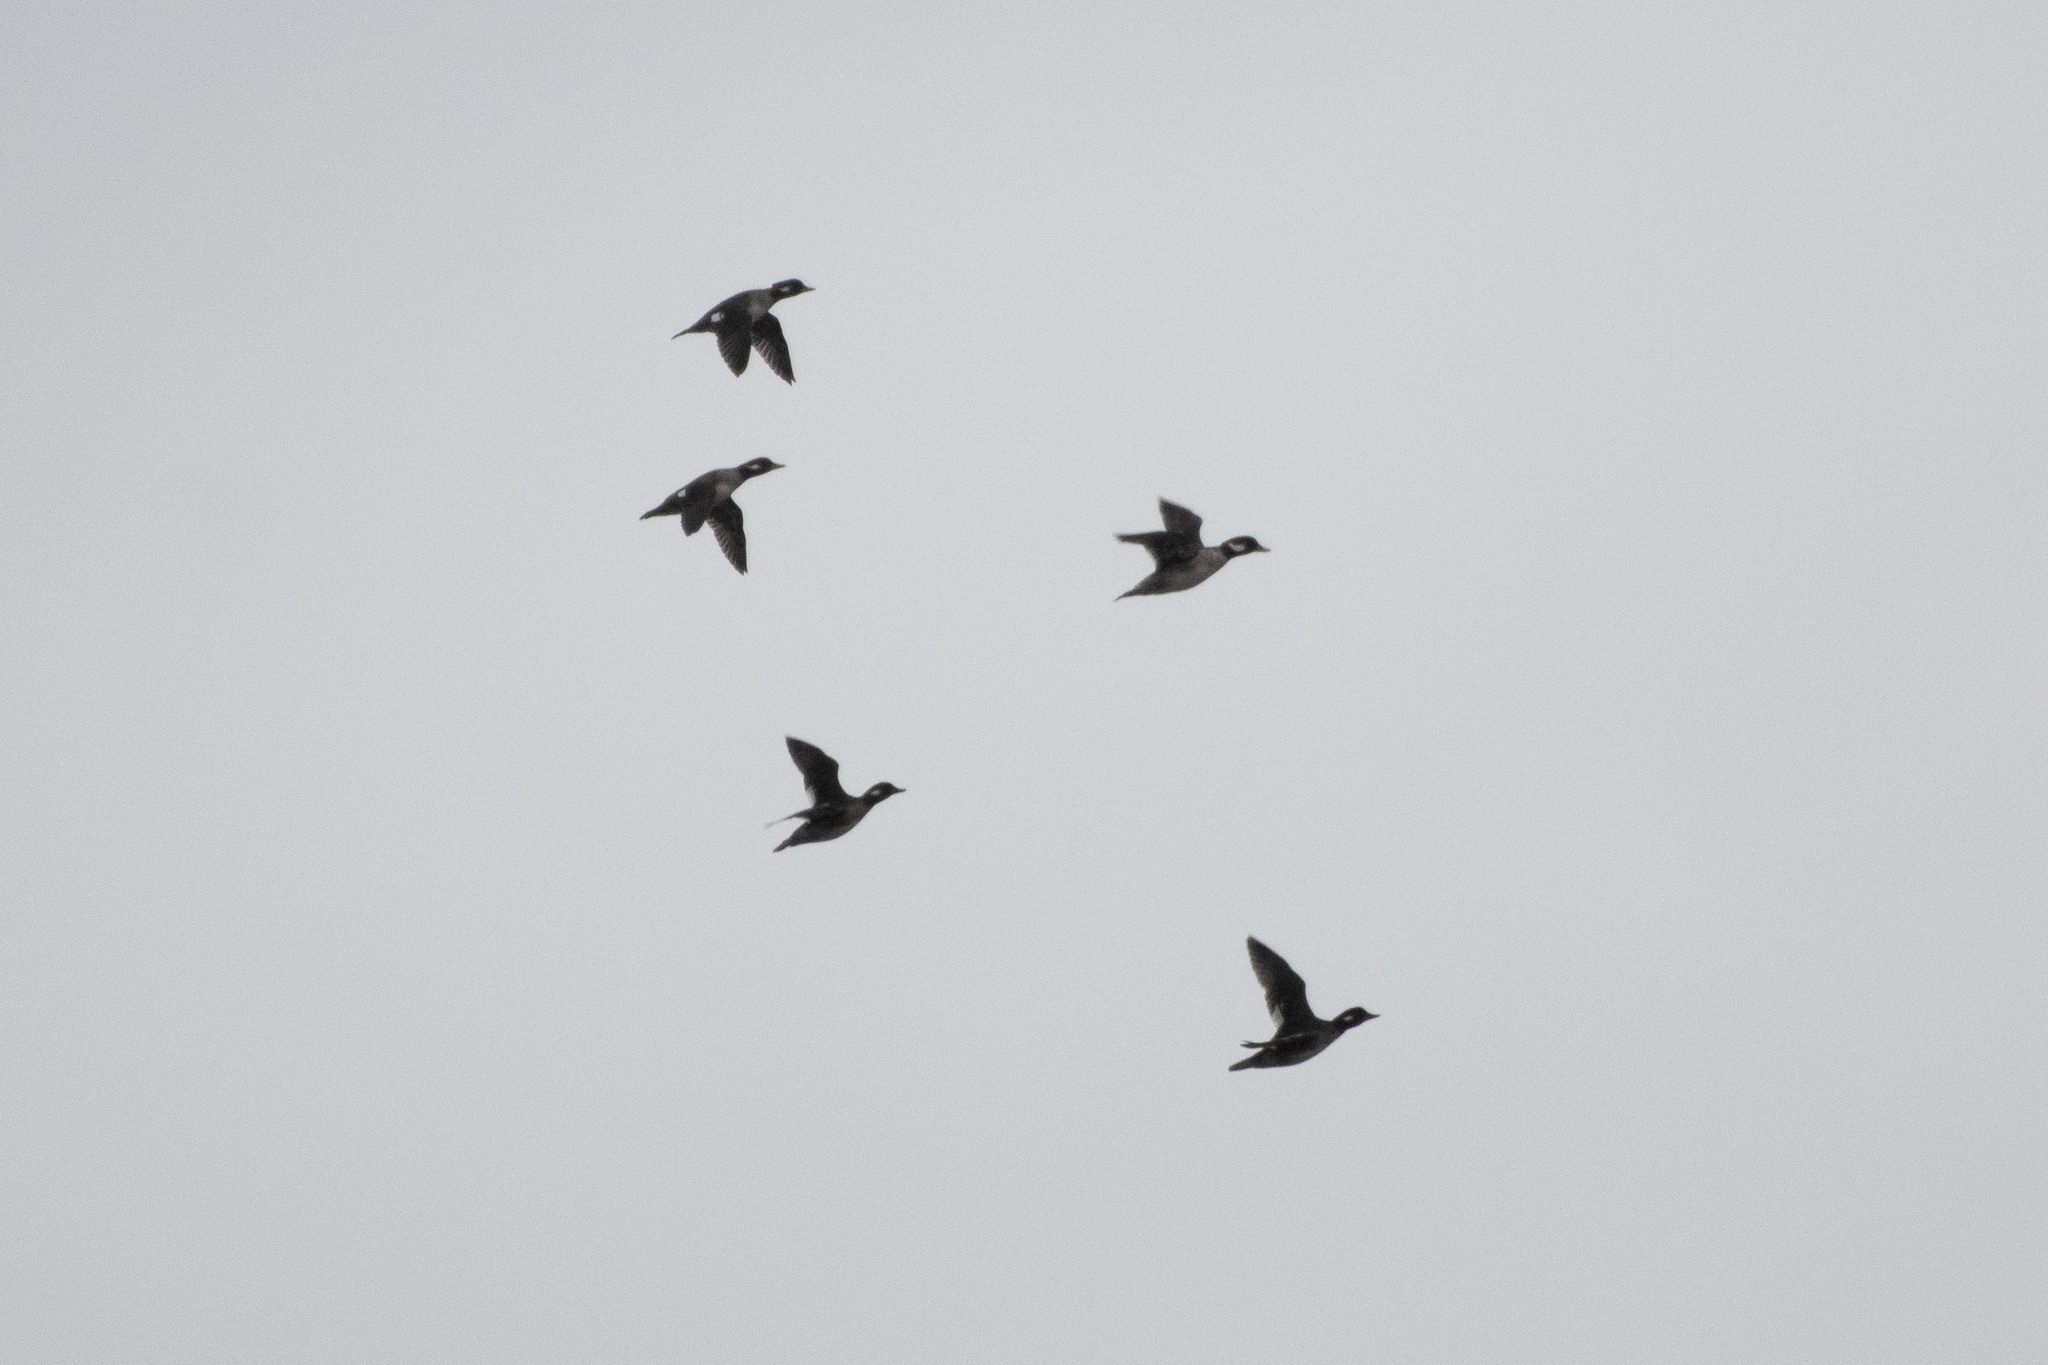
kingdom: Animalia
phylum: Chordata
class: Aves
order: Anseriformes
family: Anatidae
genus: Bucephala
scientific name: Bucephala albeola
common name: Bufflehead
